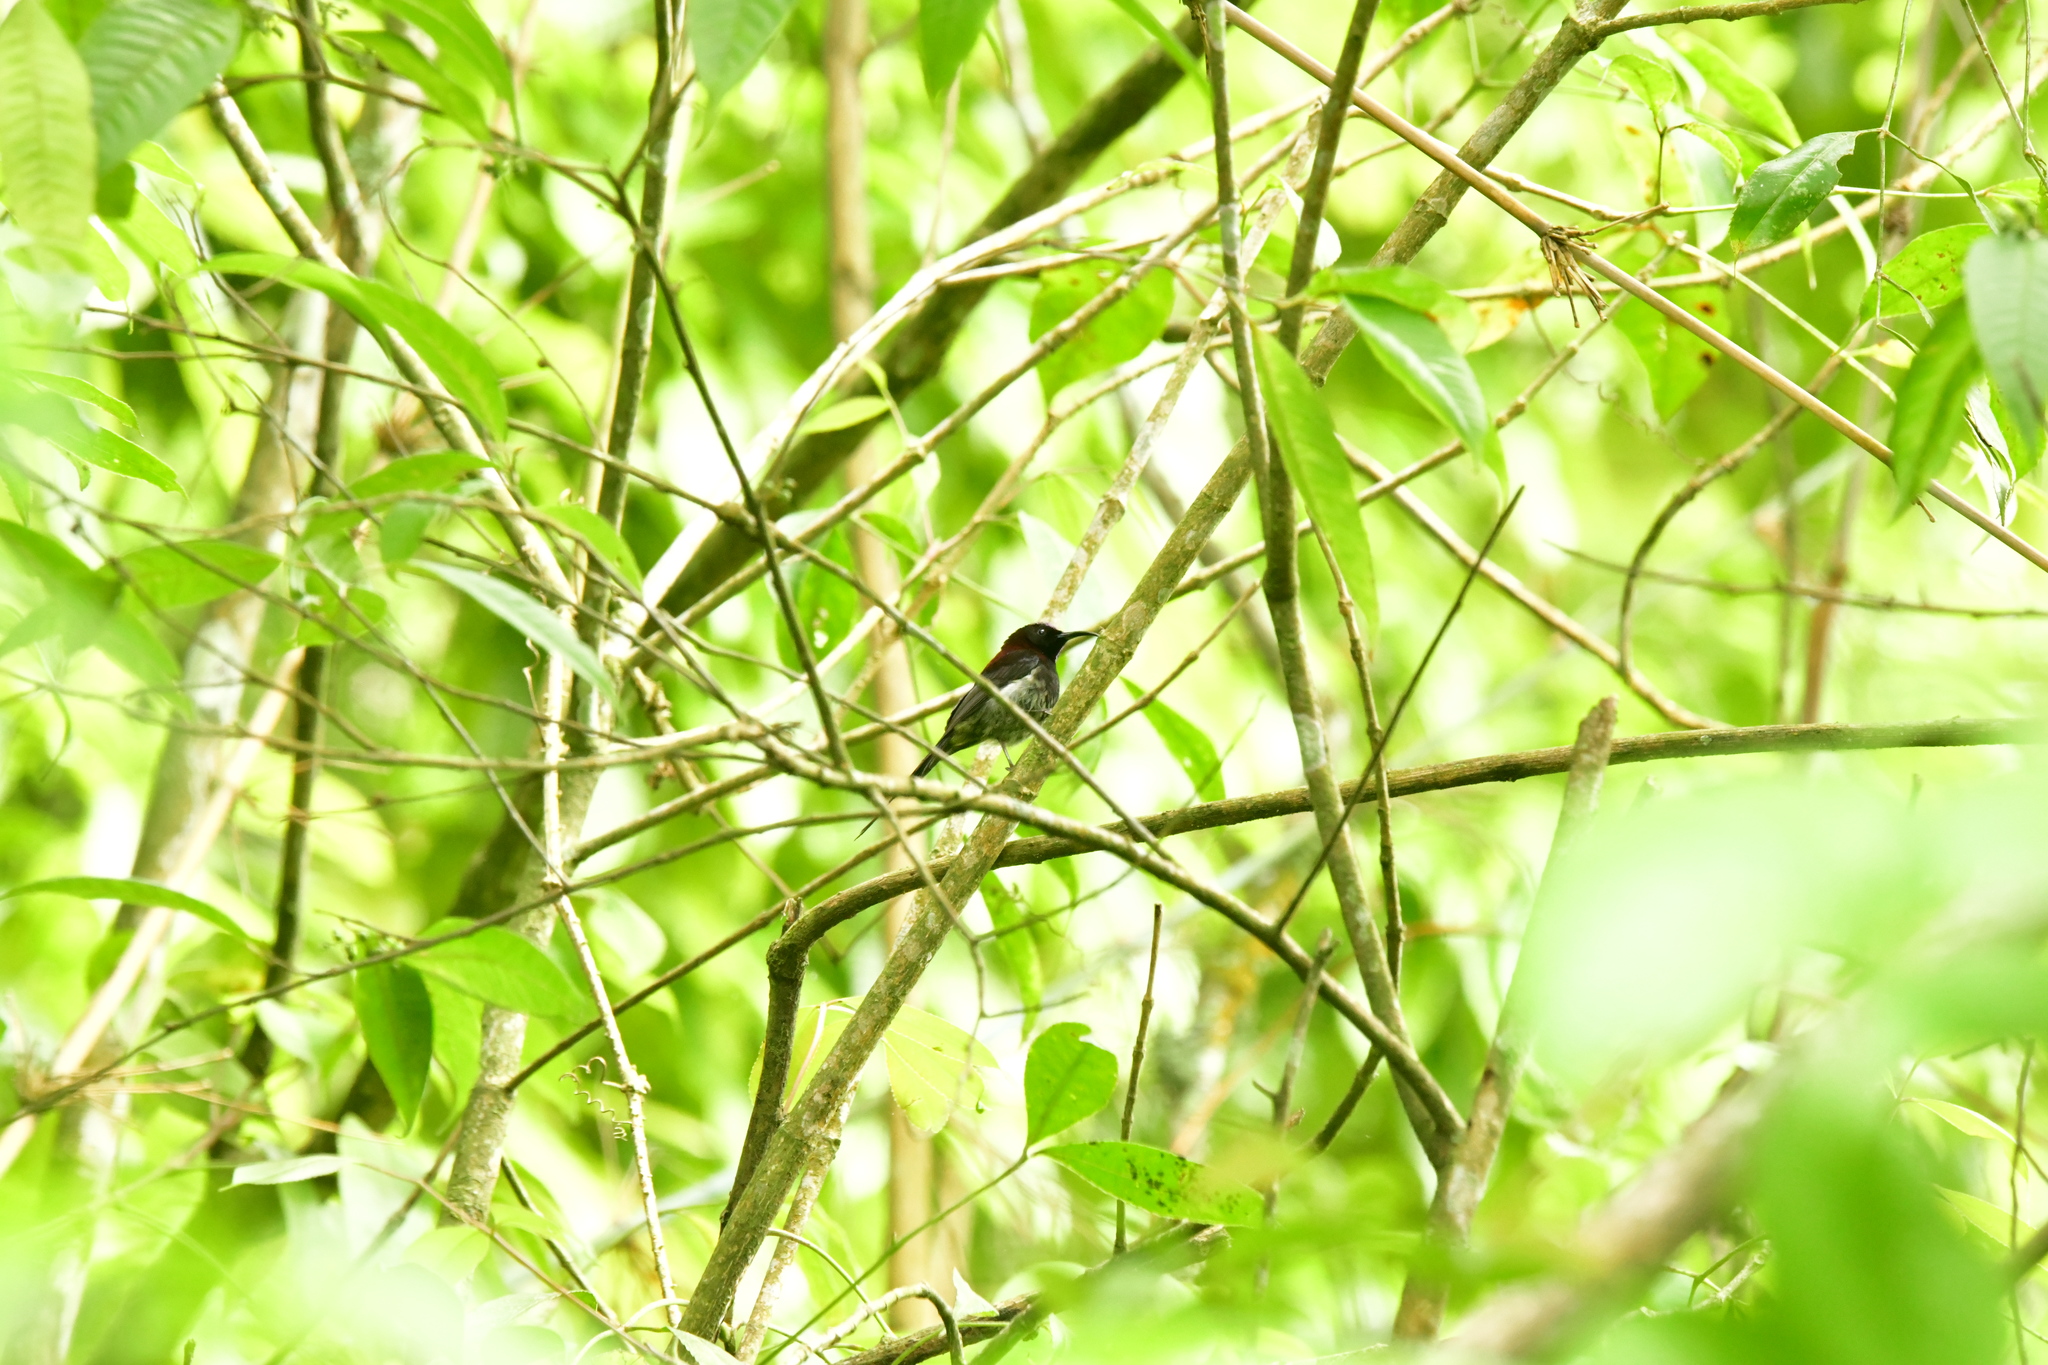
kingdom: Animalia
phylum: Chordata
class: Aves
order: Passeriformes
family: Nectariniidae
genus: Aethopyga
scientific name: Aethopyga saturata
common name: Black-throated sunbird
